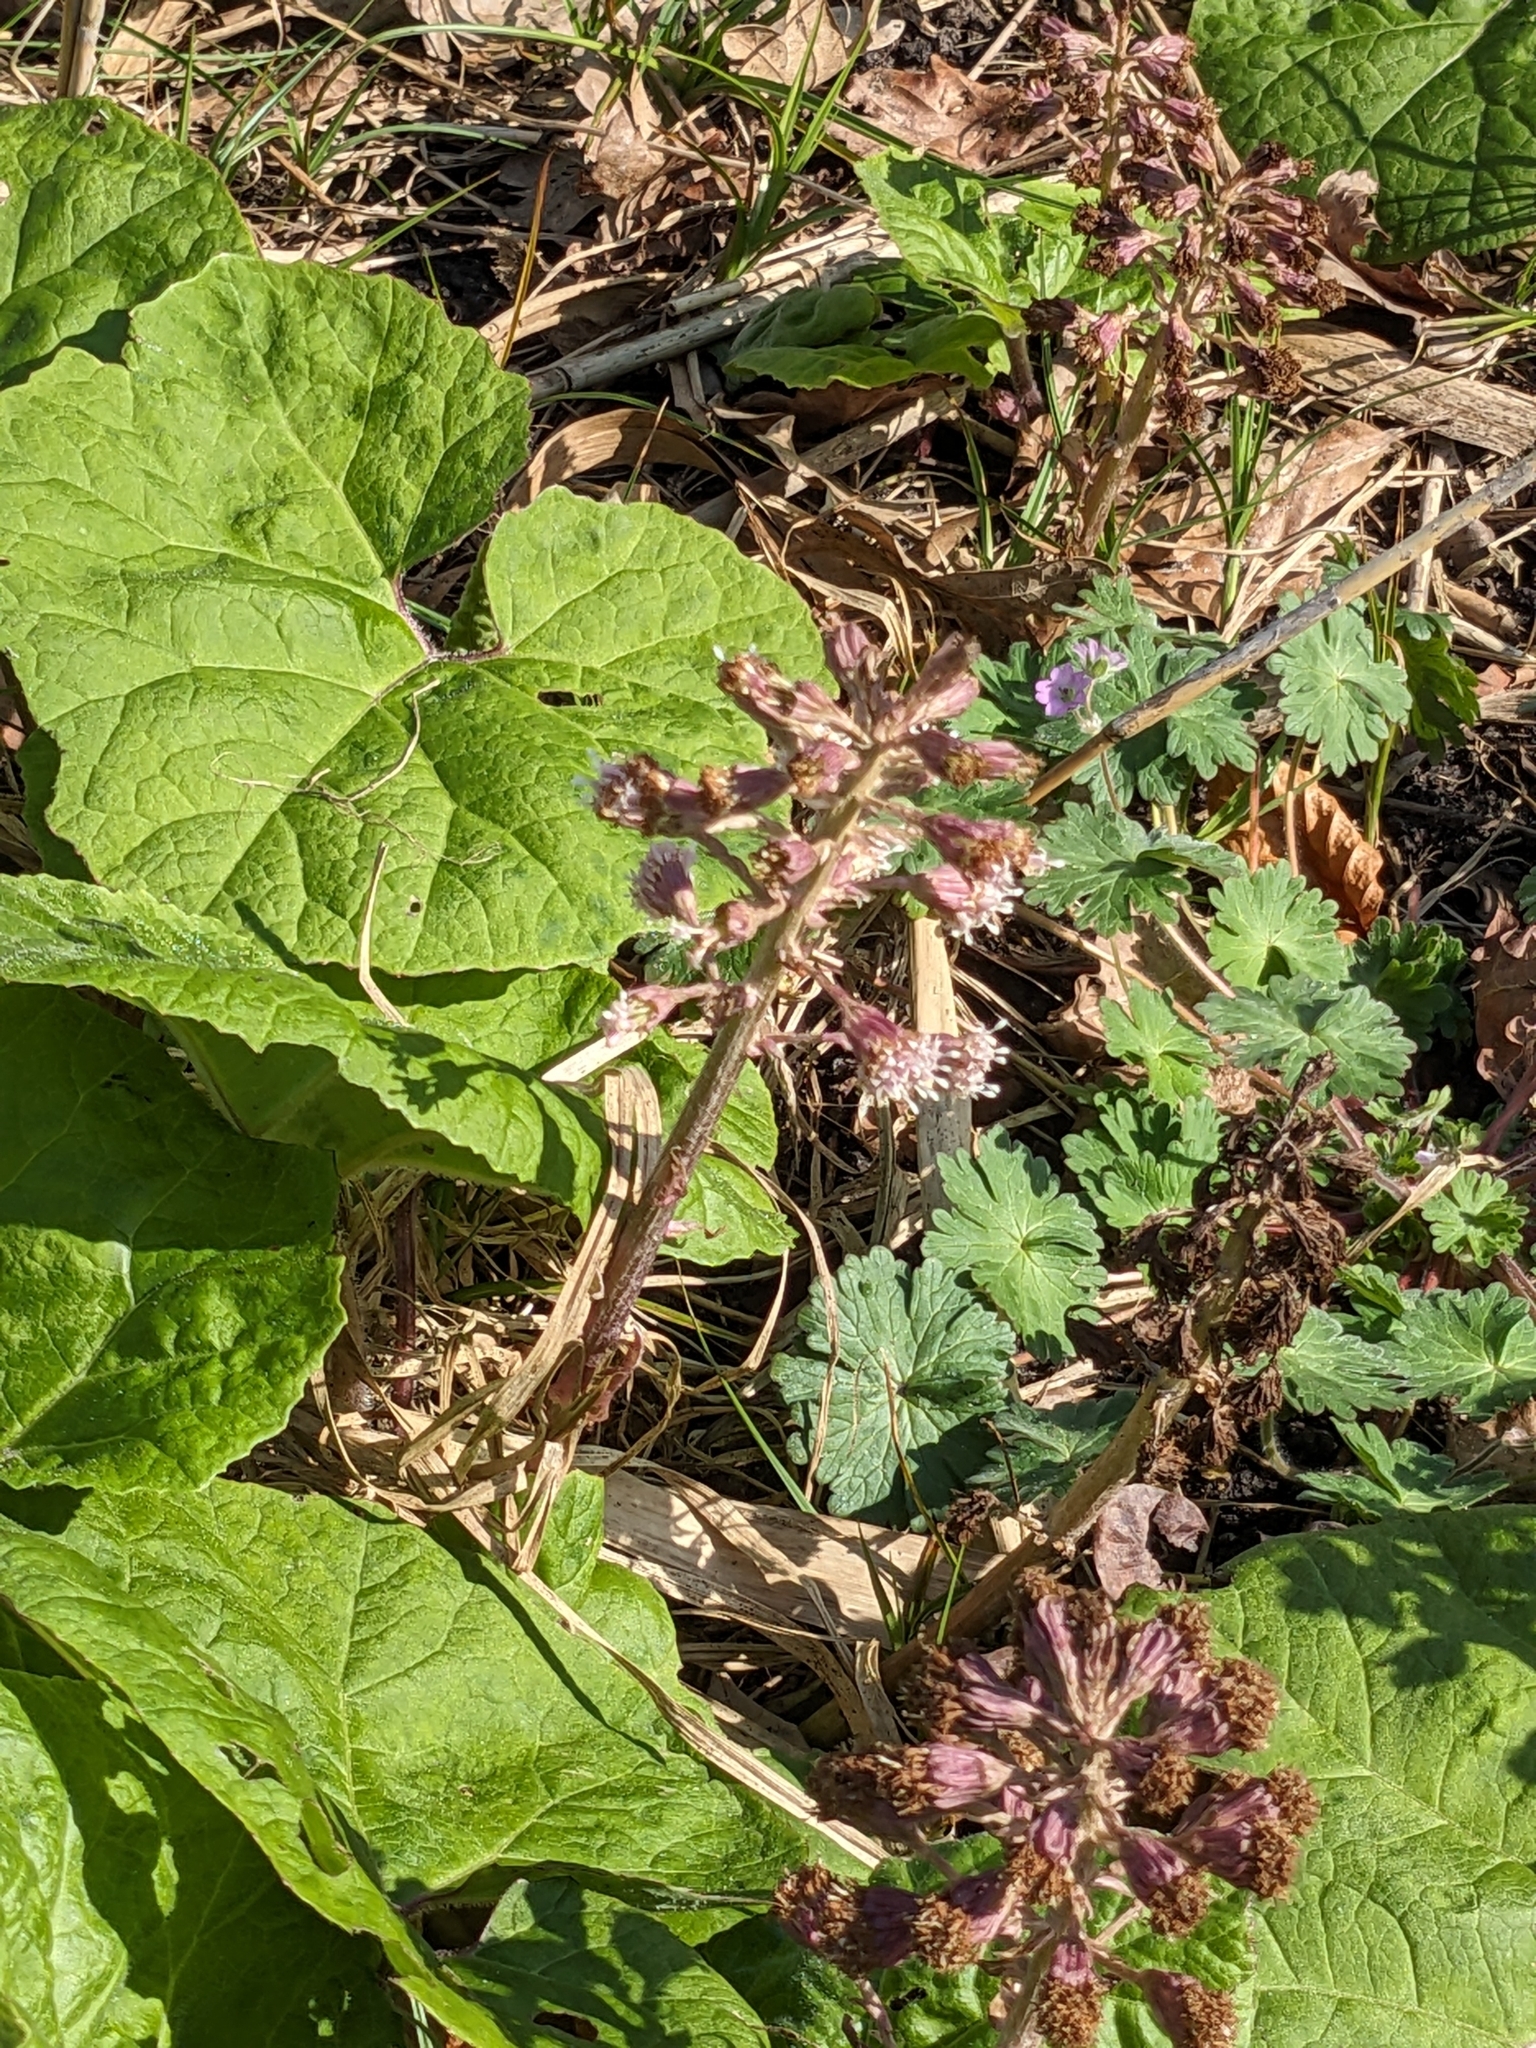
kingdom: Plantae
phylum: Tracheophyta
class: Magnoliopsida
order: Asterales
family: Asteraceae
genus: Petasites
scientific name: Petasites hybridus
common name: Butterbur
